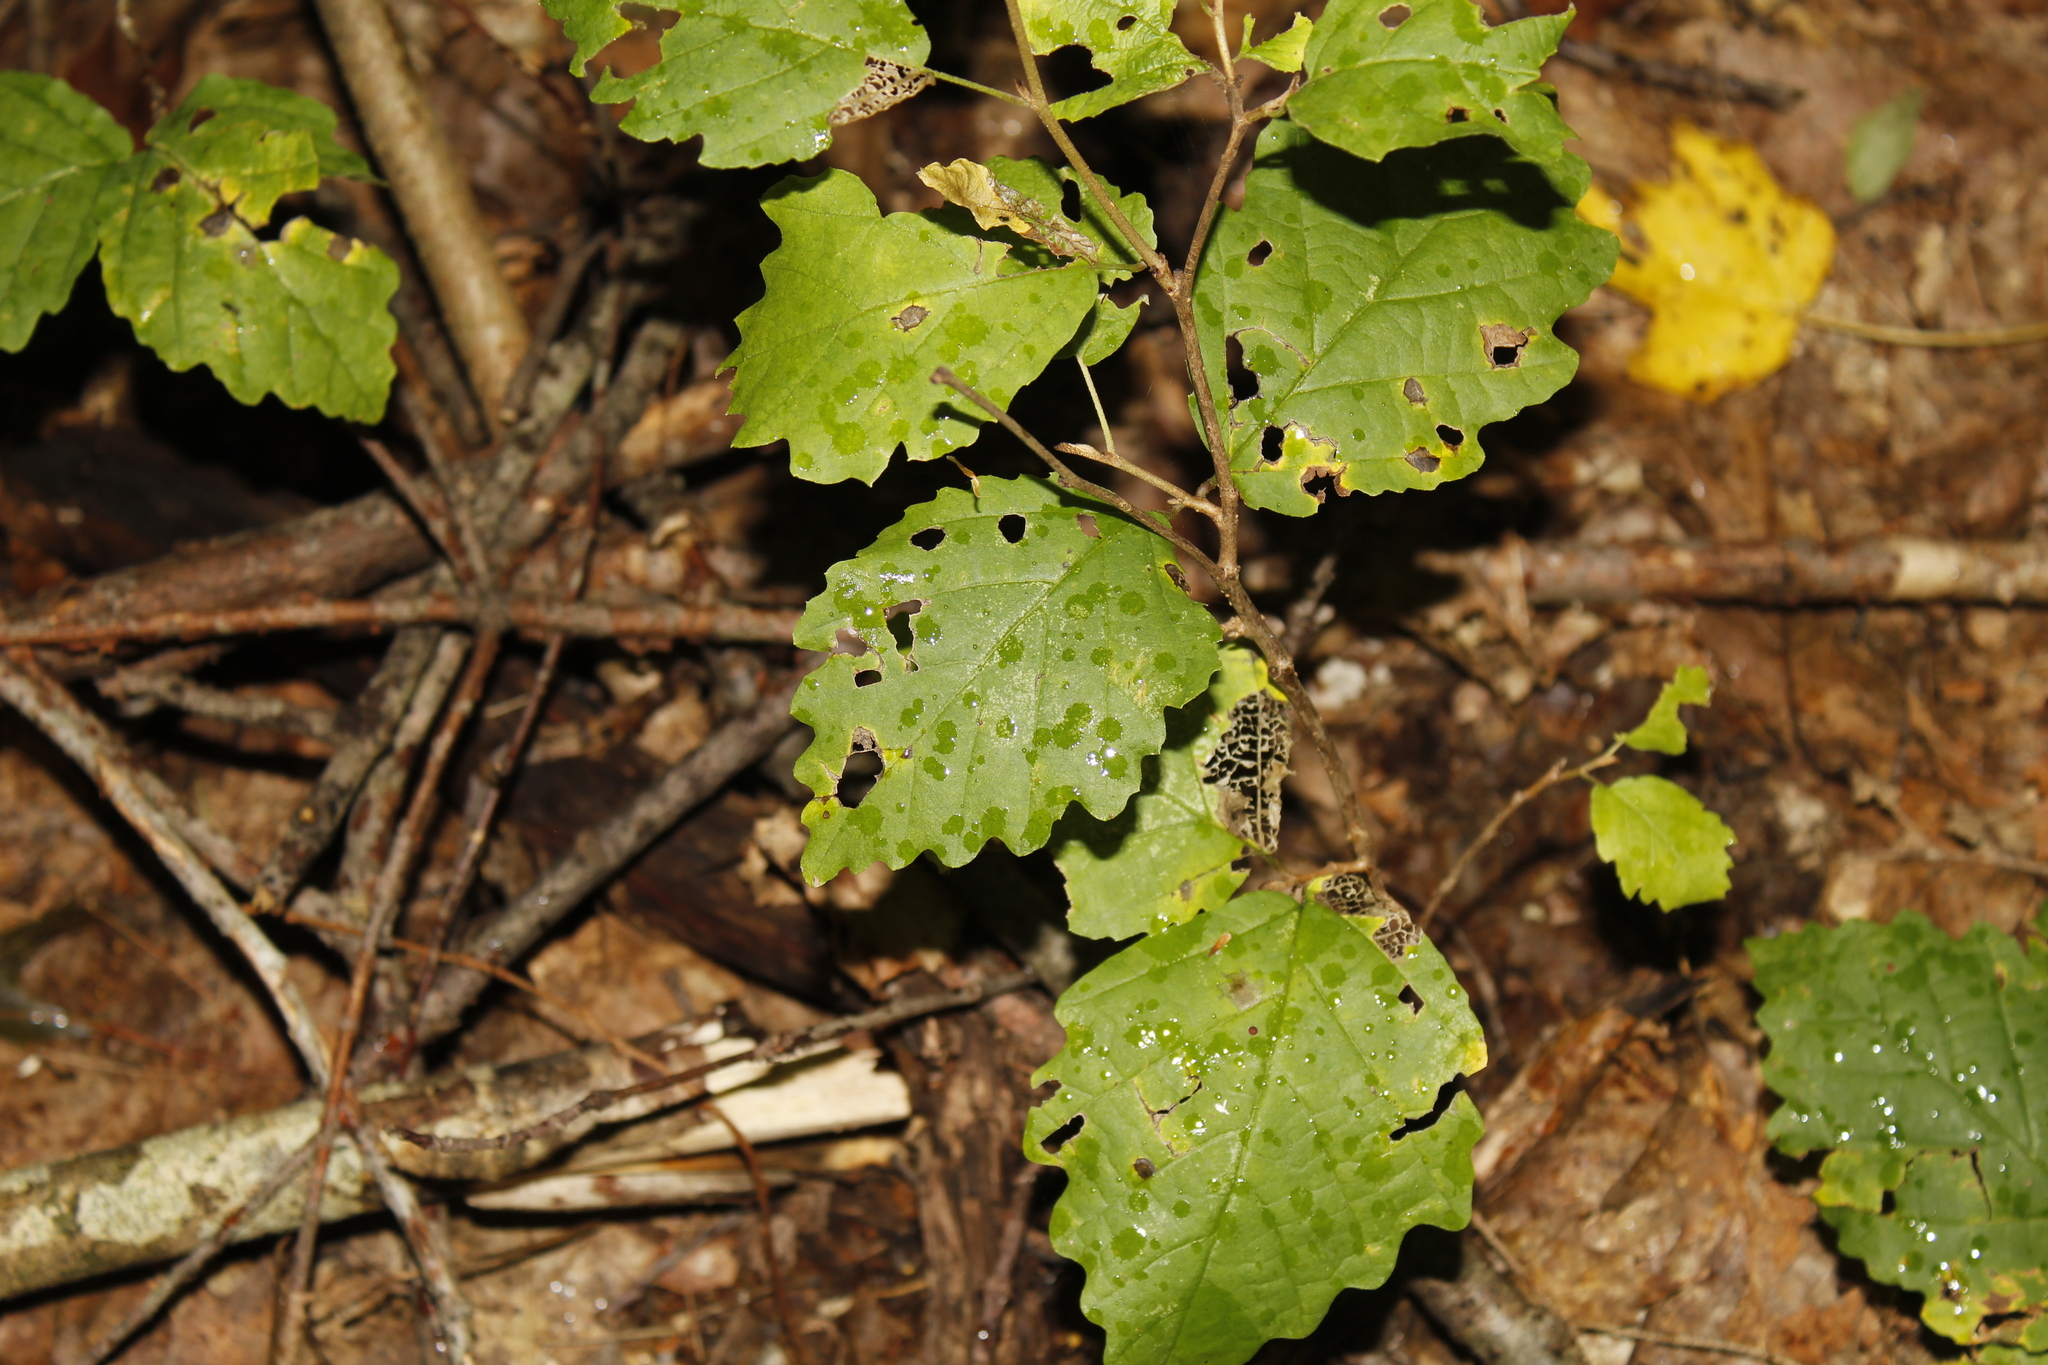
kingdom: Plantae
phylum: Tracheophyta
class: Magnoliopsida
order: Saxifragales
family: Hamamelidaceae
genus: Hamamelis
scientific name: Hamamelis virginiana
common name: Witch-hazel
